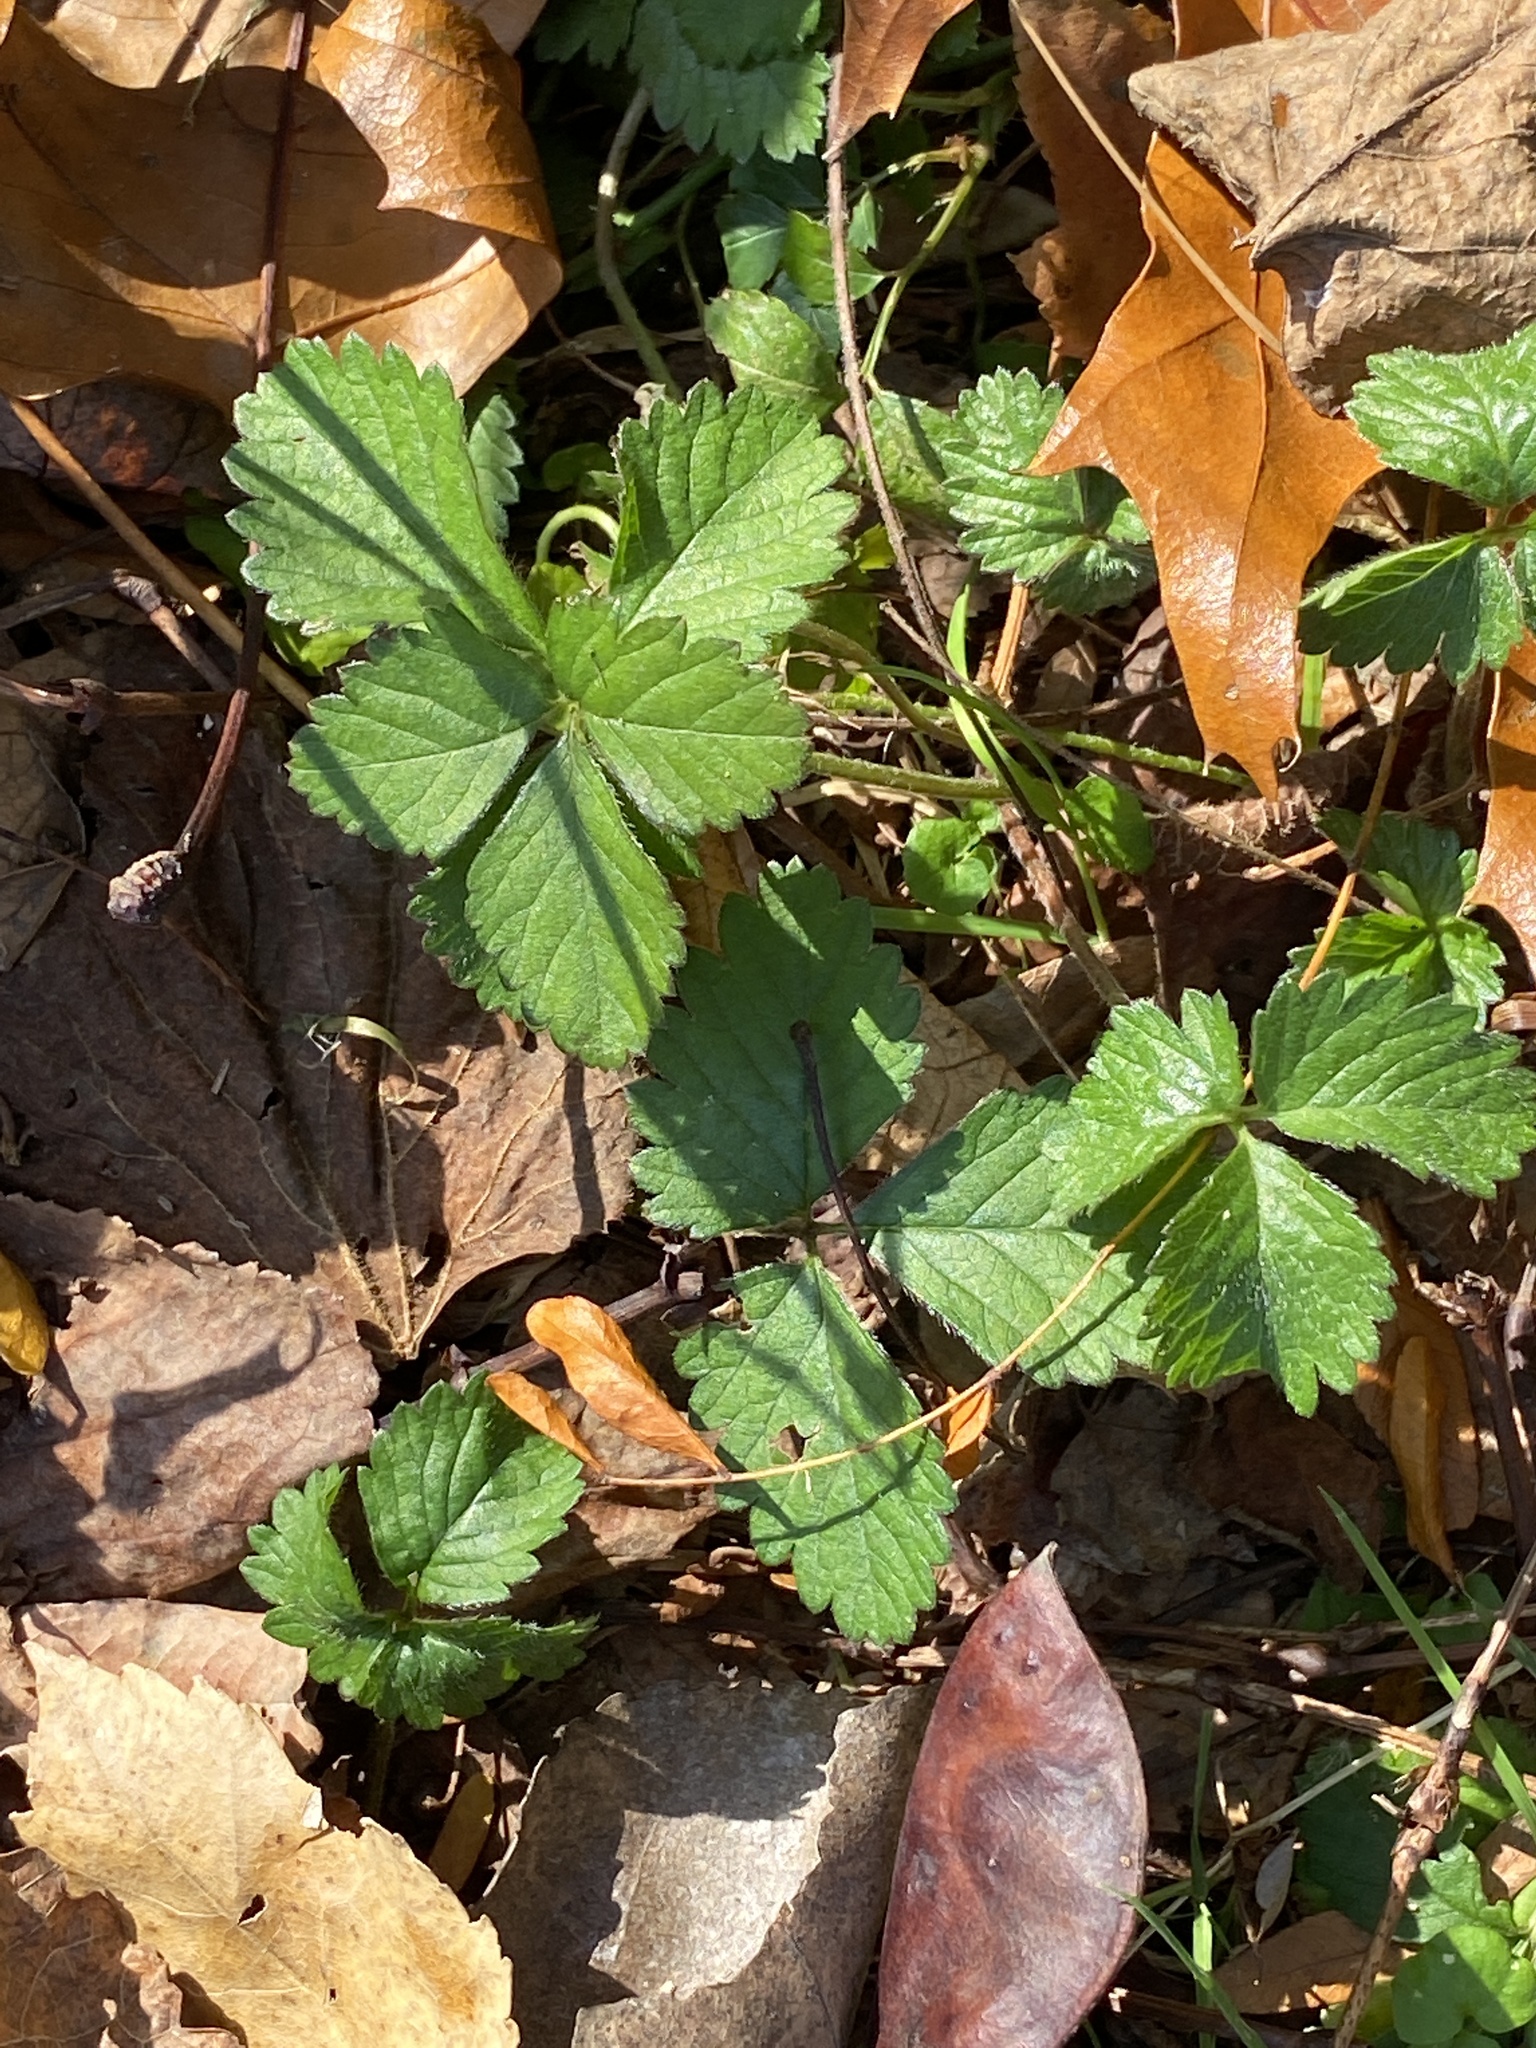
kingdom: Plantae
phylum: Tracheophyta
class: Magnoliopsida
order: Rosales
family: Rosaceae
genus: Potentilla
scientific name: Potentilla indica
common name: Yellow-flowered strawberry
